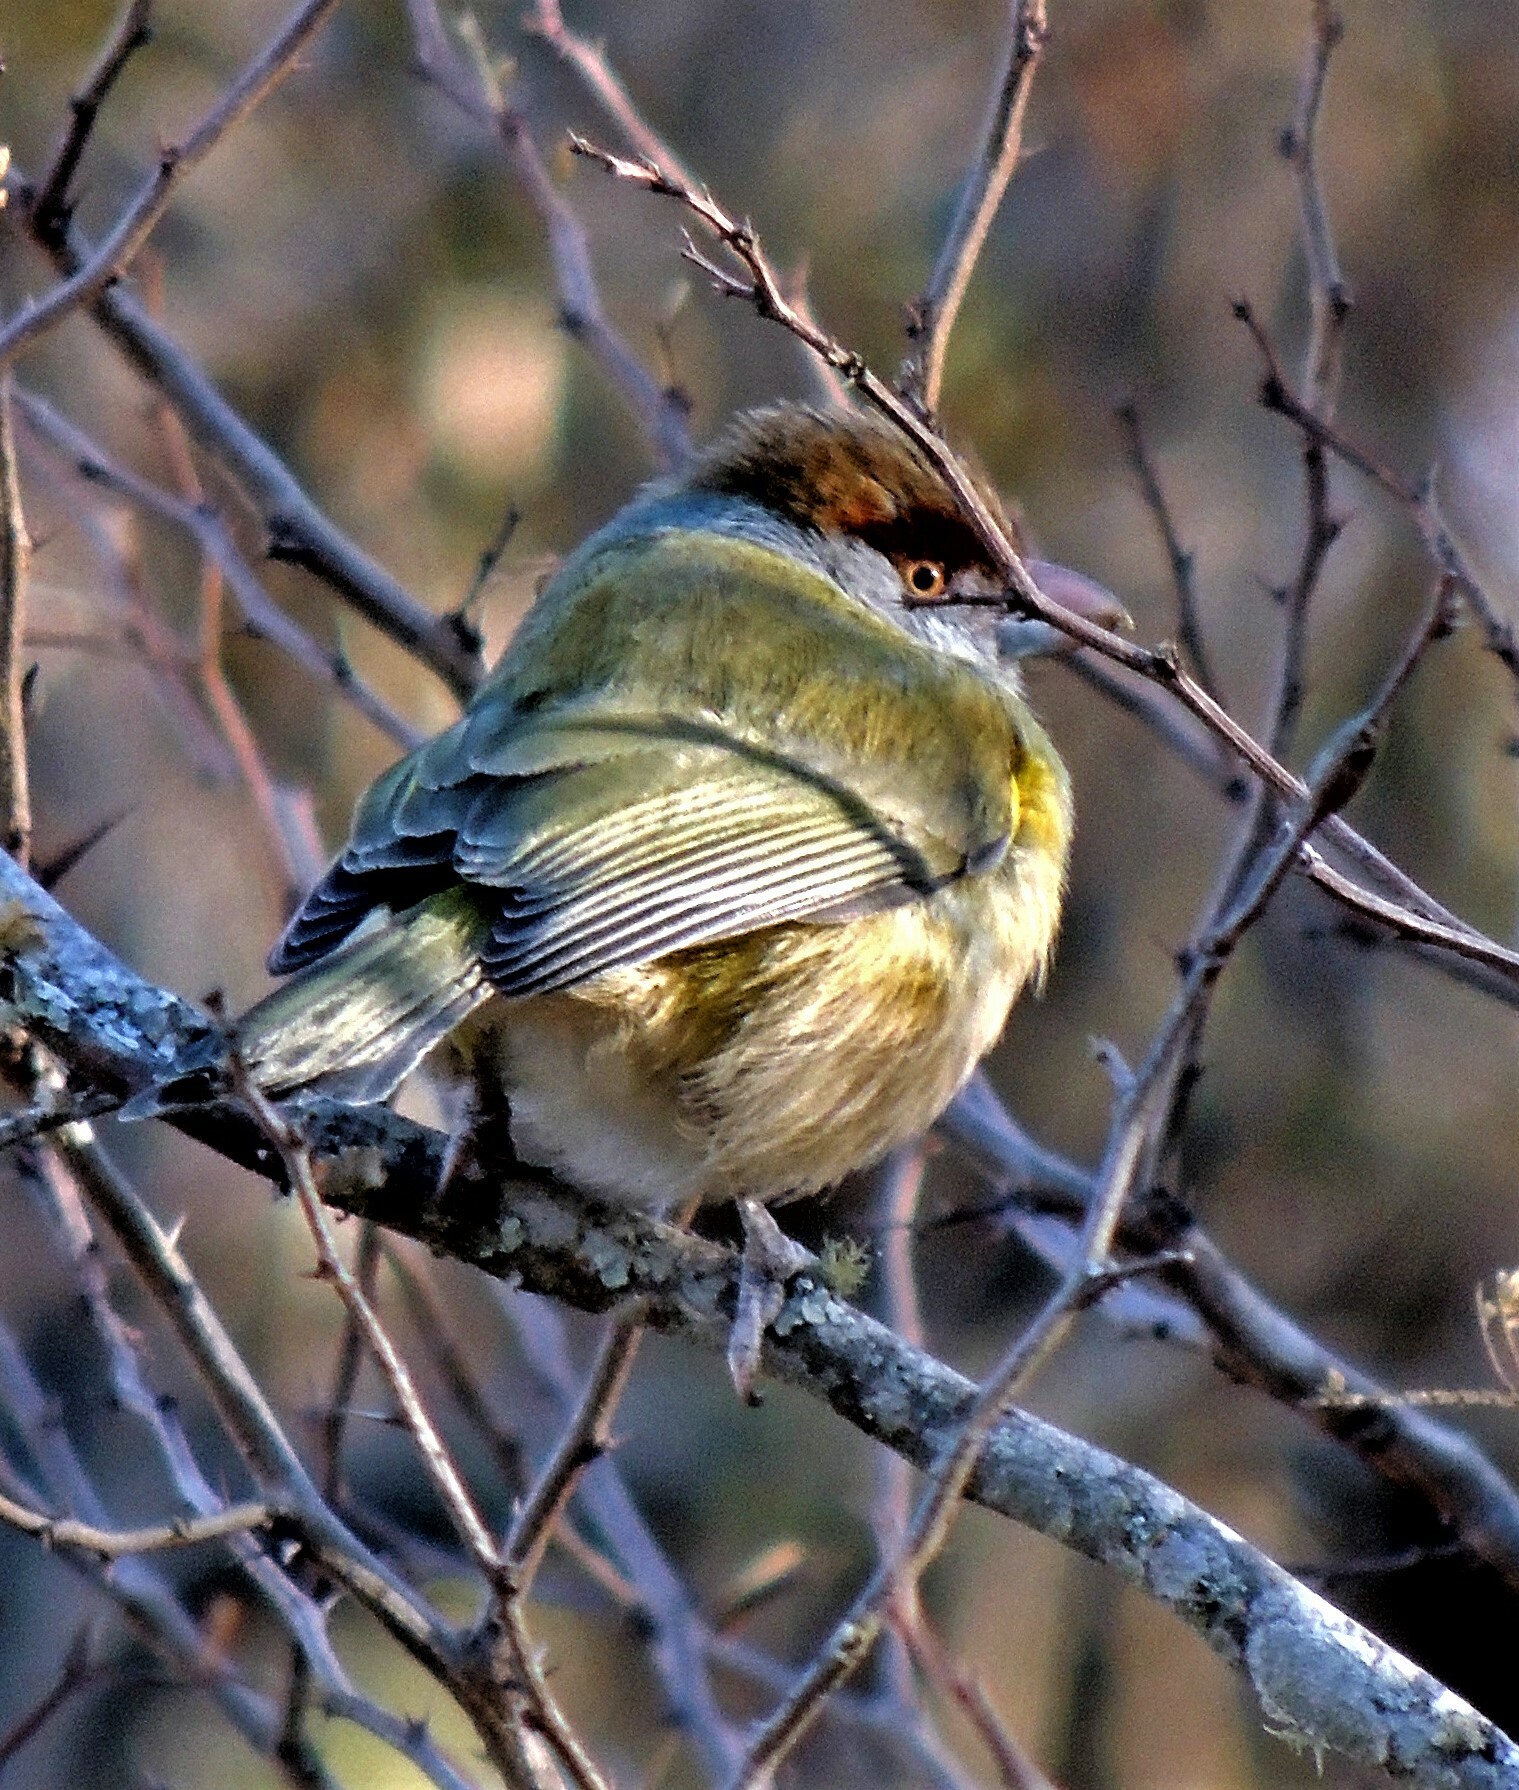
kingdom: Animalia
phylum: Chordata
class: Aves
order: Passeriformes
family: Vireonidae
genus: Cyclarhis
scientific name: Cyclarhis gujanensis
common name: Rufous-browed peppershrike
